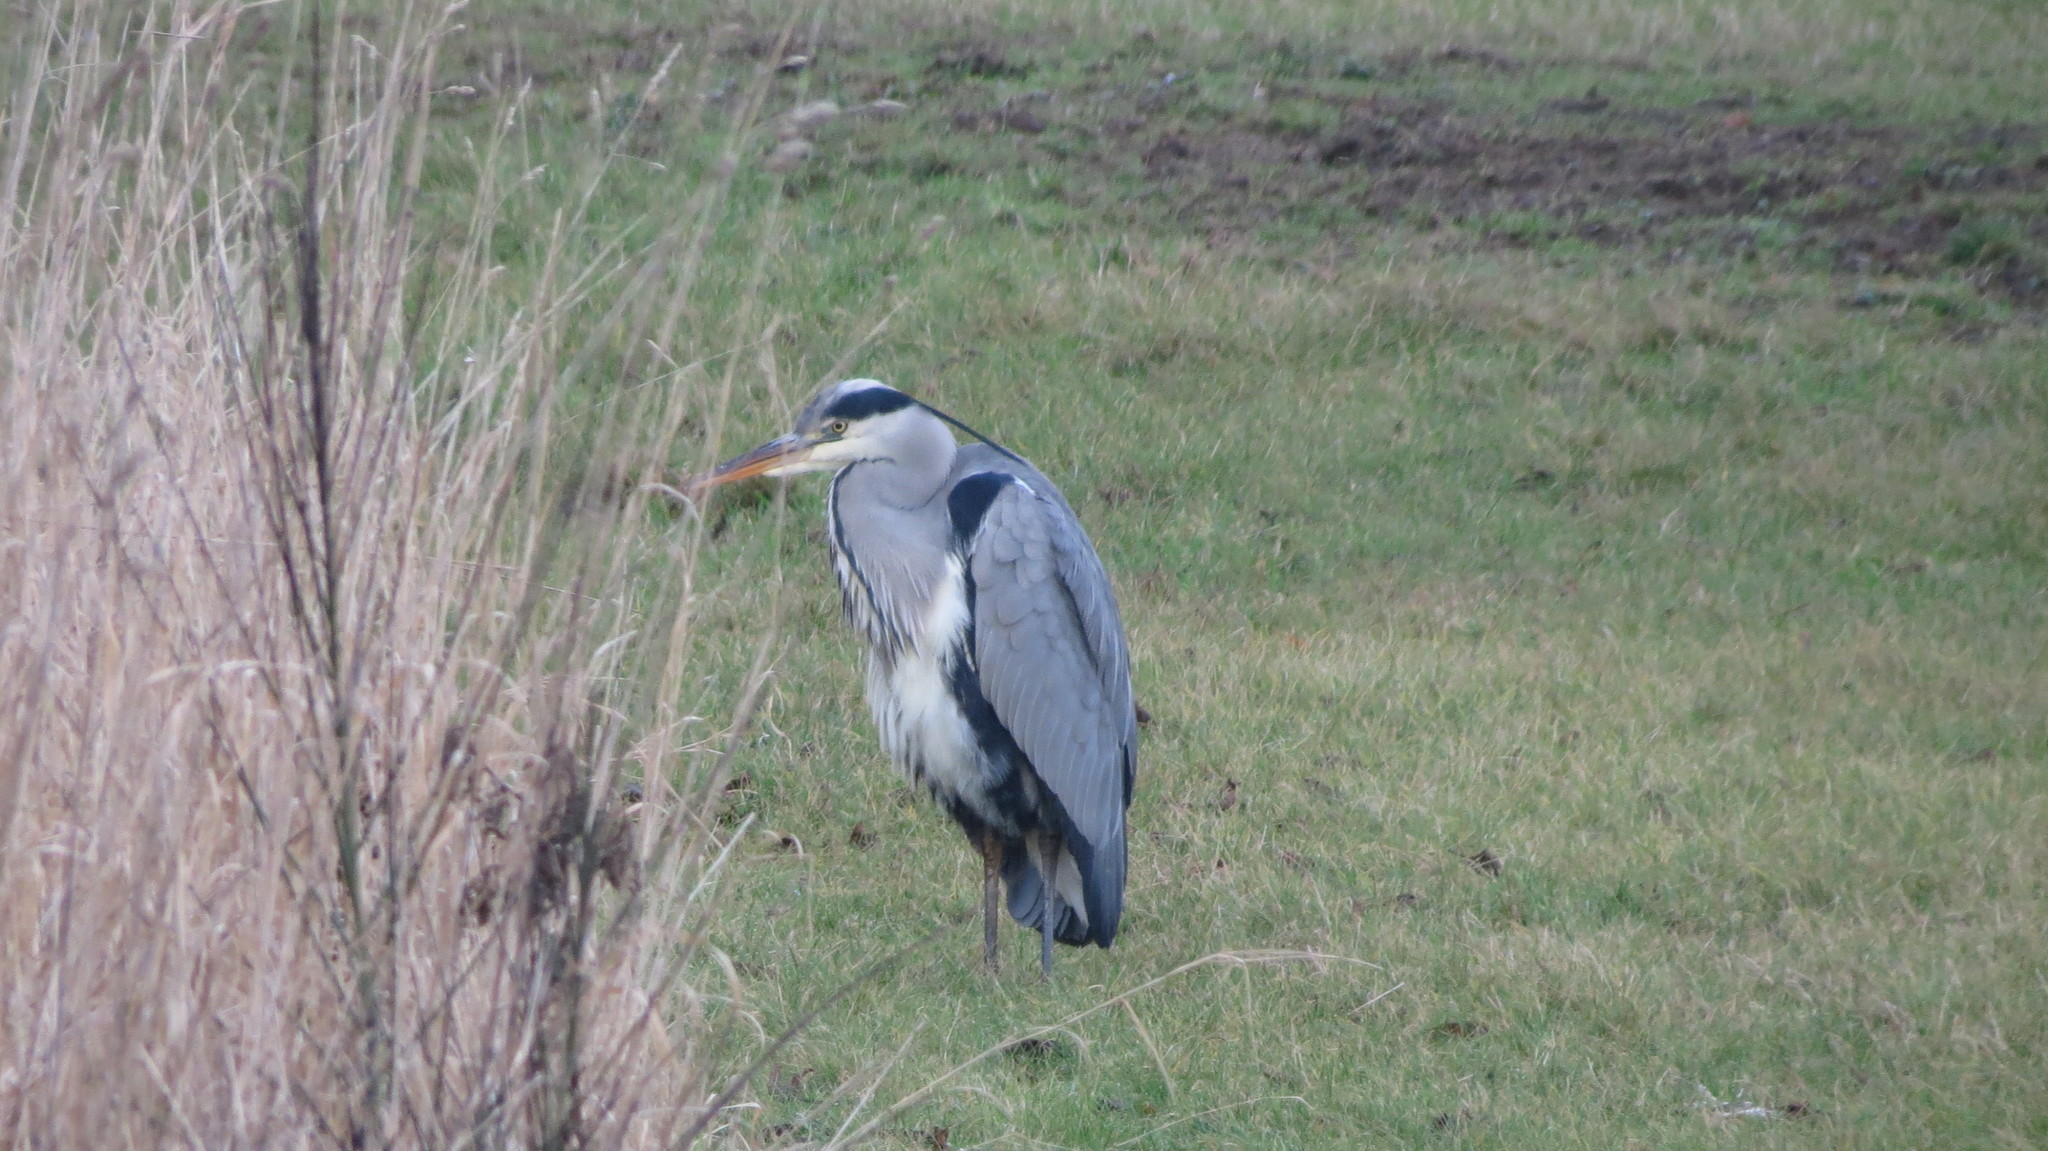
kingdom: Animalia
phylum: Chordata
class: Aves
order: Pelecaniformes
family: Ardeidae
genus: Ardea
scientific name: Ardea cinerea
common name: Grey heron
